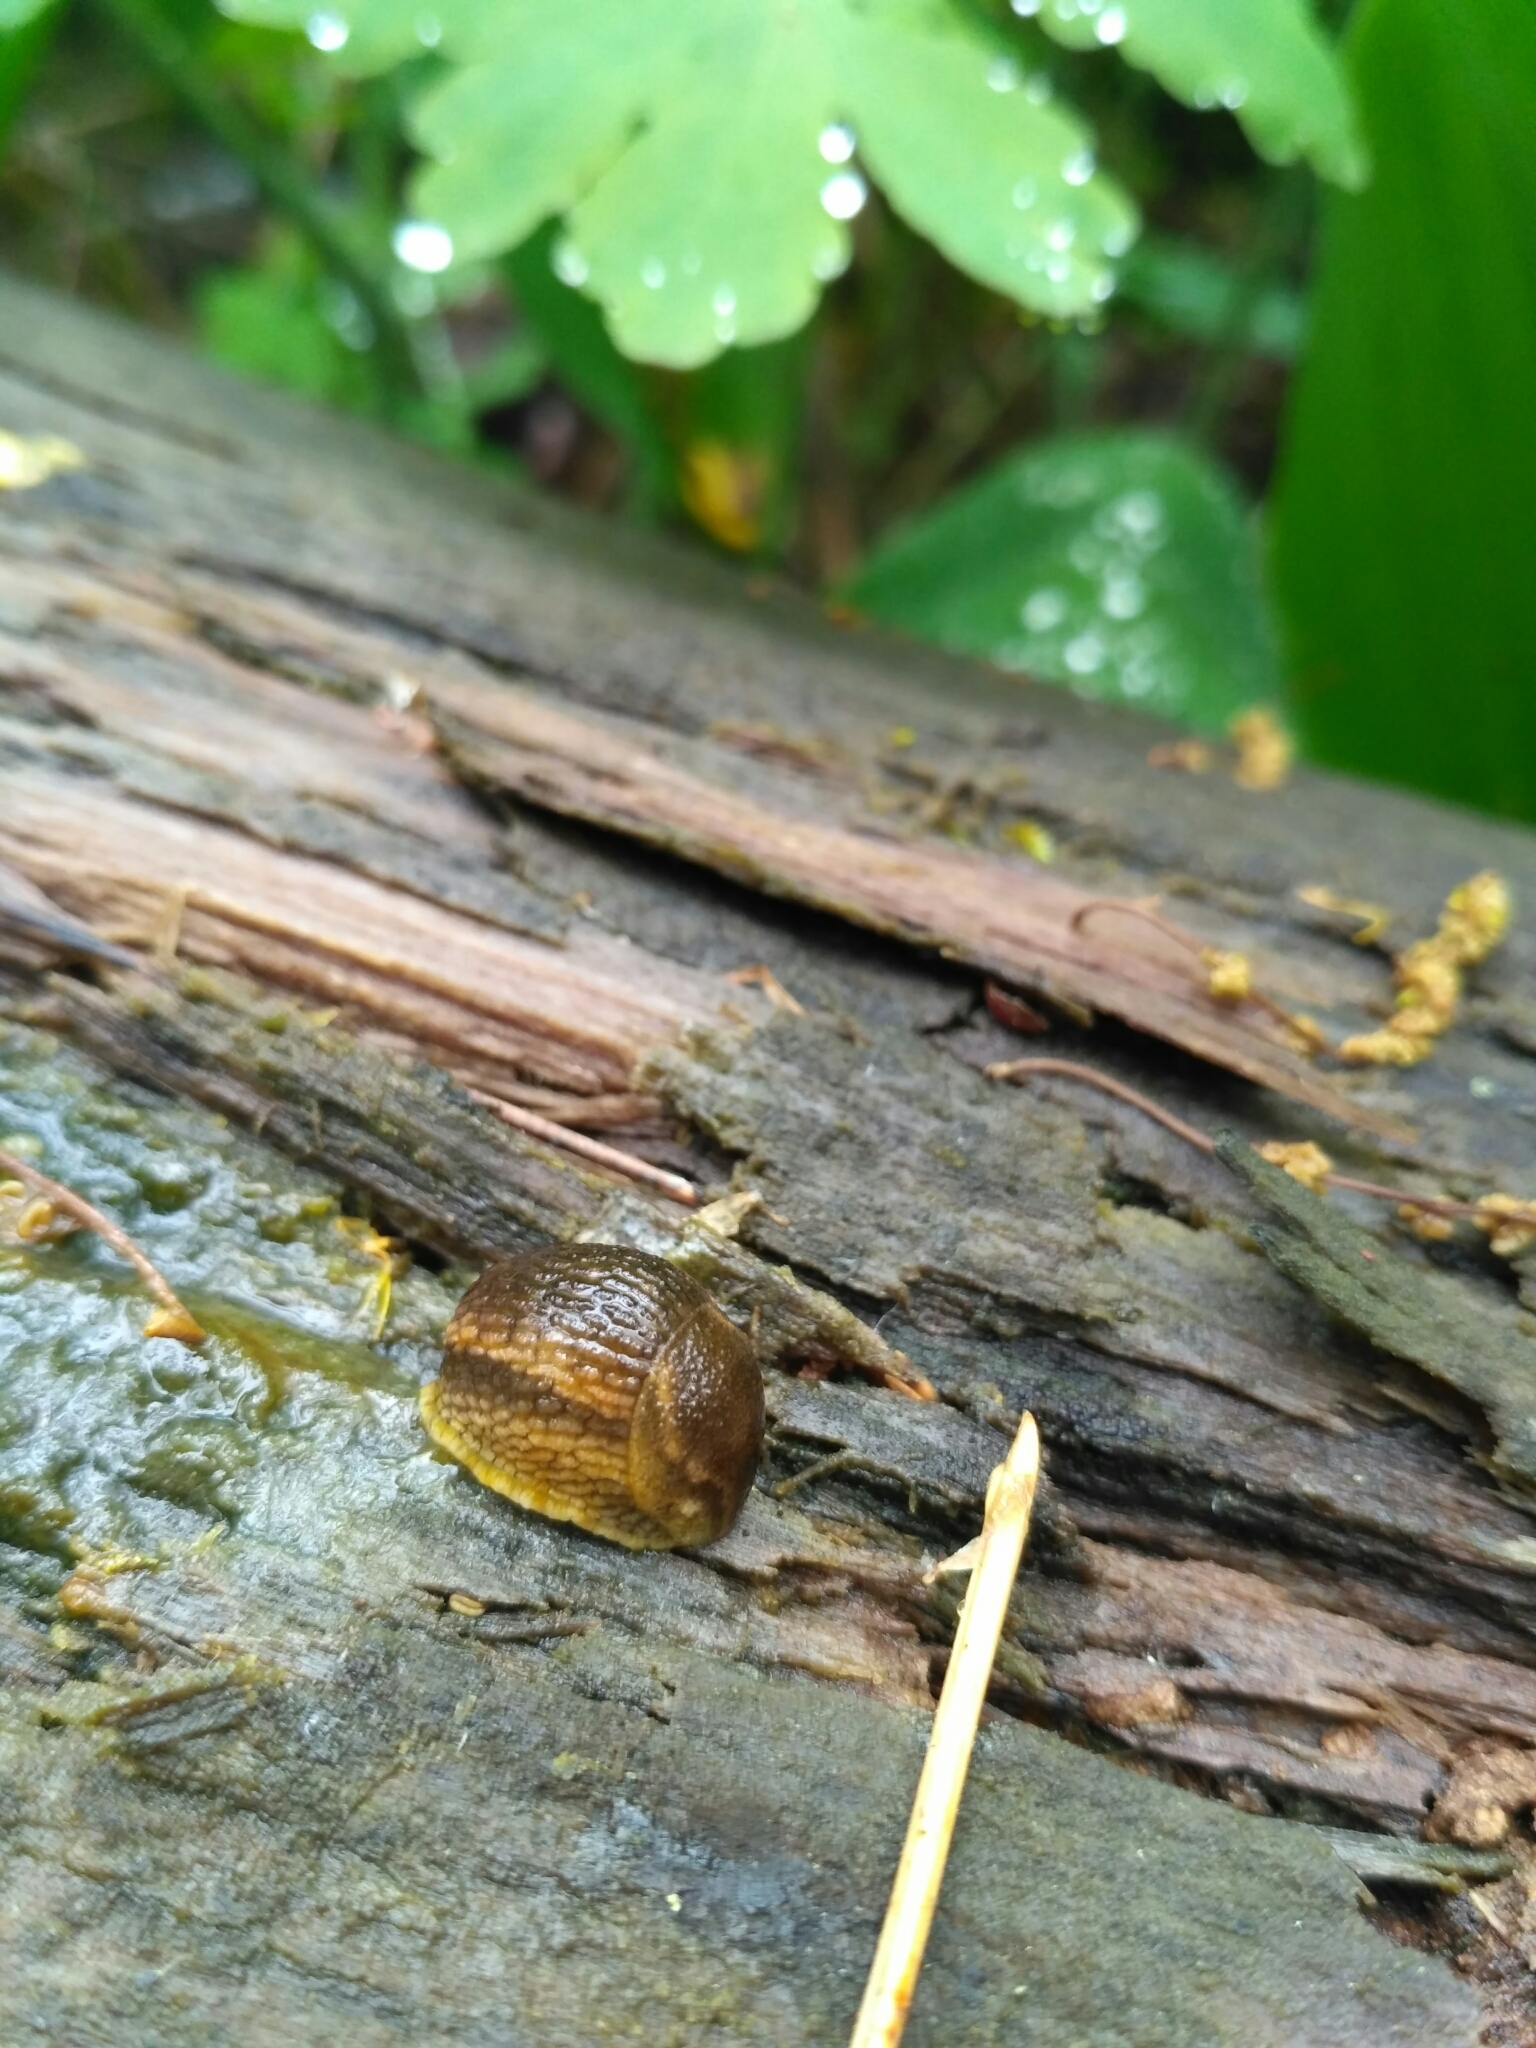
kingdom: Animalia
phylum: Mollusca
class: Gastropoda
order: Stylommatophora
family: Arionidae
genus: Arion
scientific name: Arion fuscus
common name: Northern dusky slug
